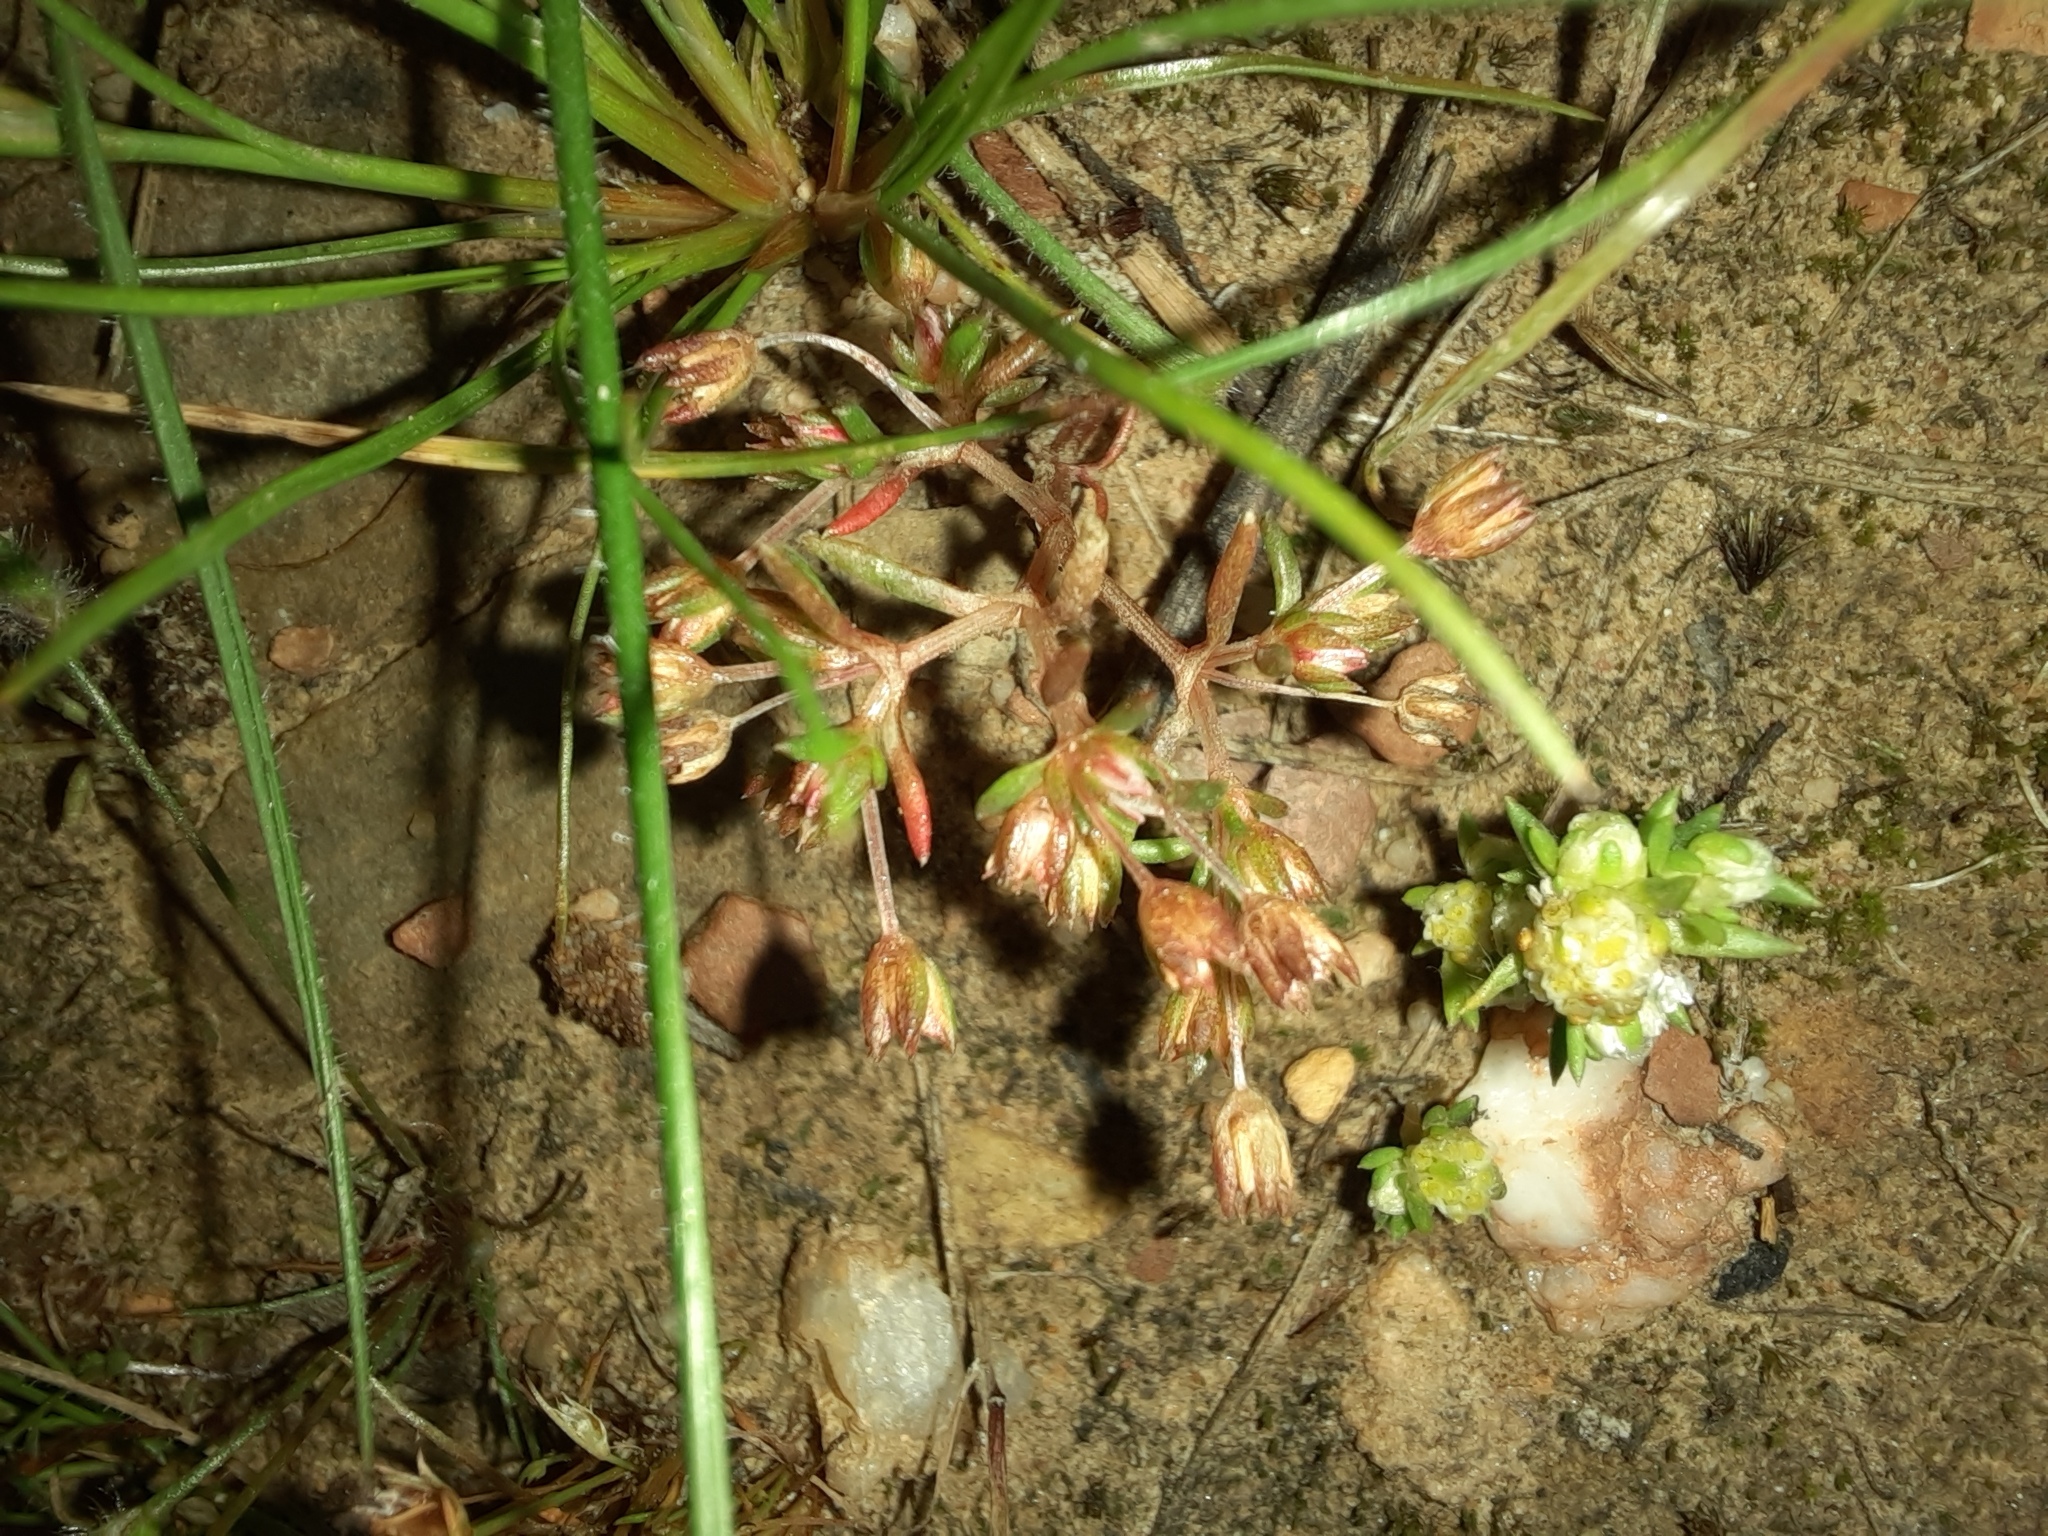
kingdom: Plantae
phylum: Tracheophyta
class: Magnoliopsida
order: Saxifragales
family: Crassulaceae
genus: Crassula
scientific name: Crassula decumbens
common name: Scilly pigmyweed
